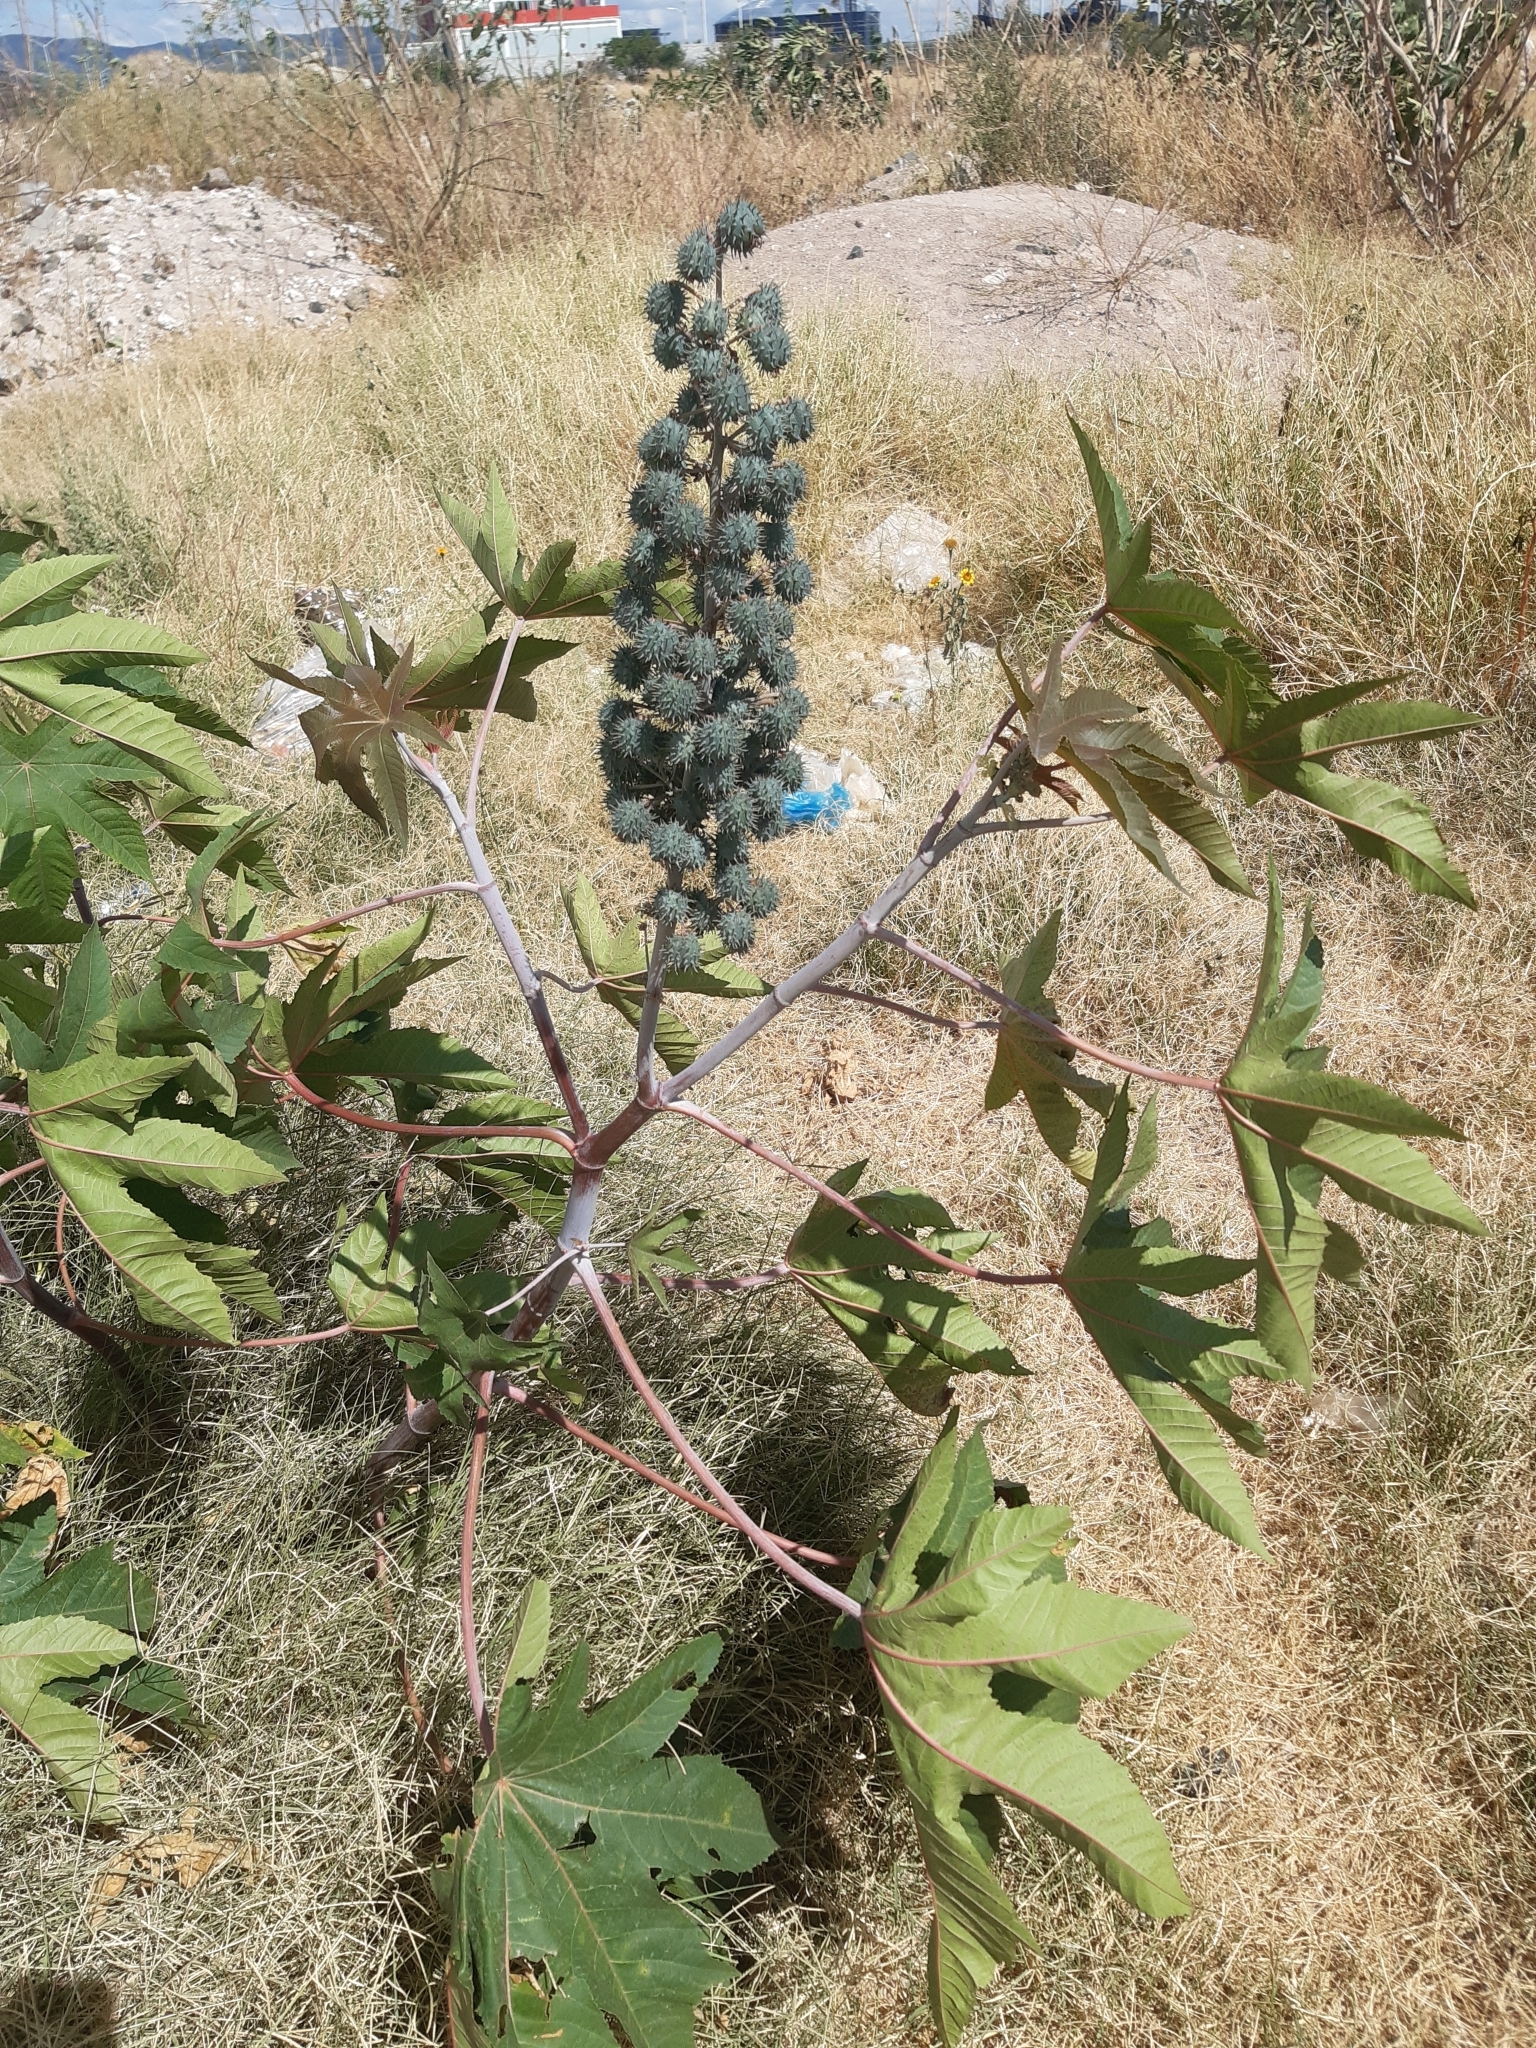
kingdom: Plantae
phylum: Tracheophyta
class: Magnoliopsida
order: Malpighiales
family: Euphorbiaceae
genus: Ricinus
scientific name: Ricinus communis
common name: Castor-oil-plant
